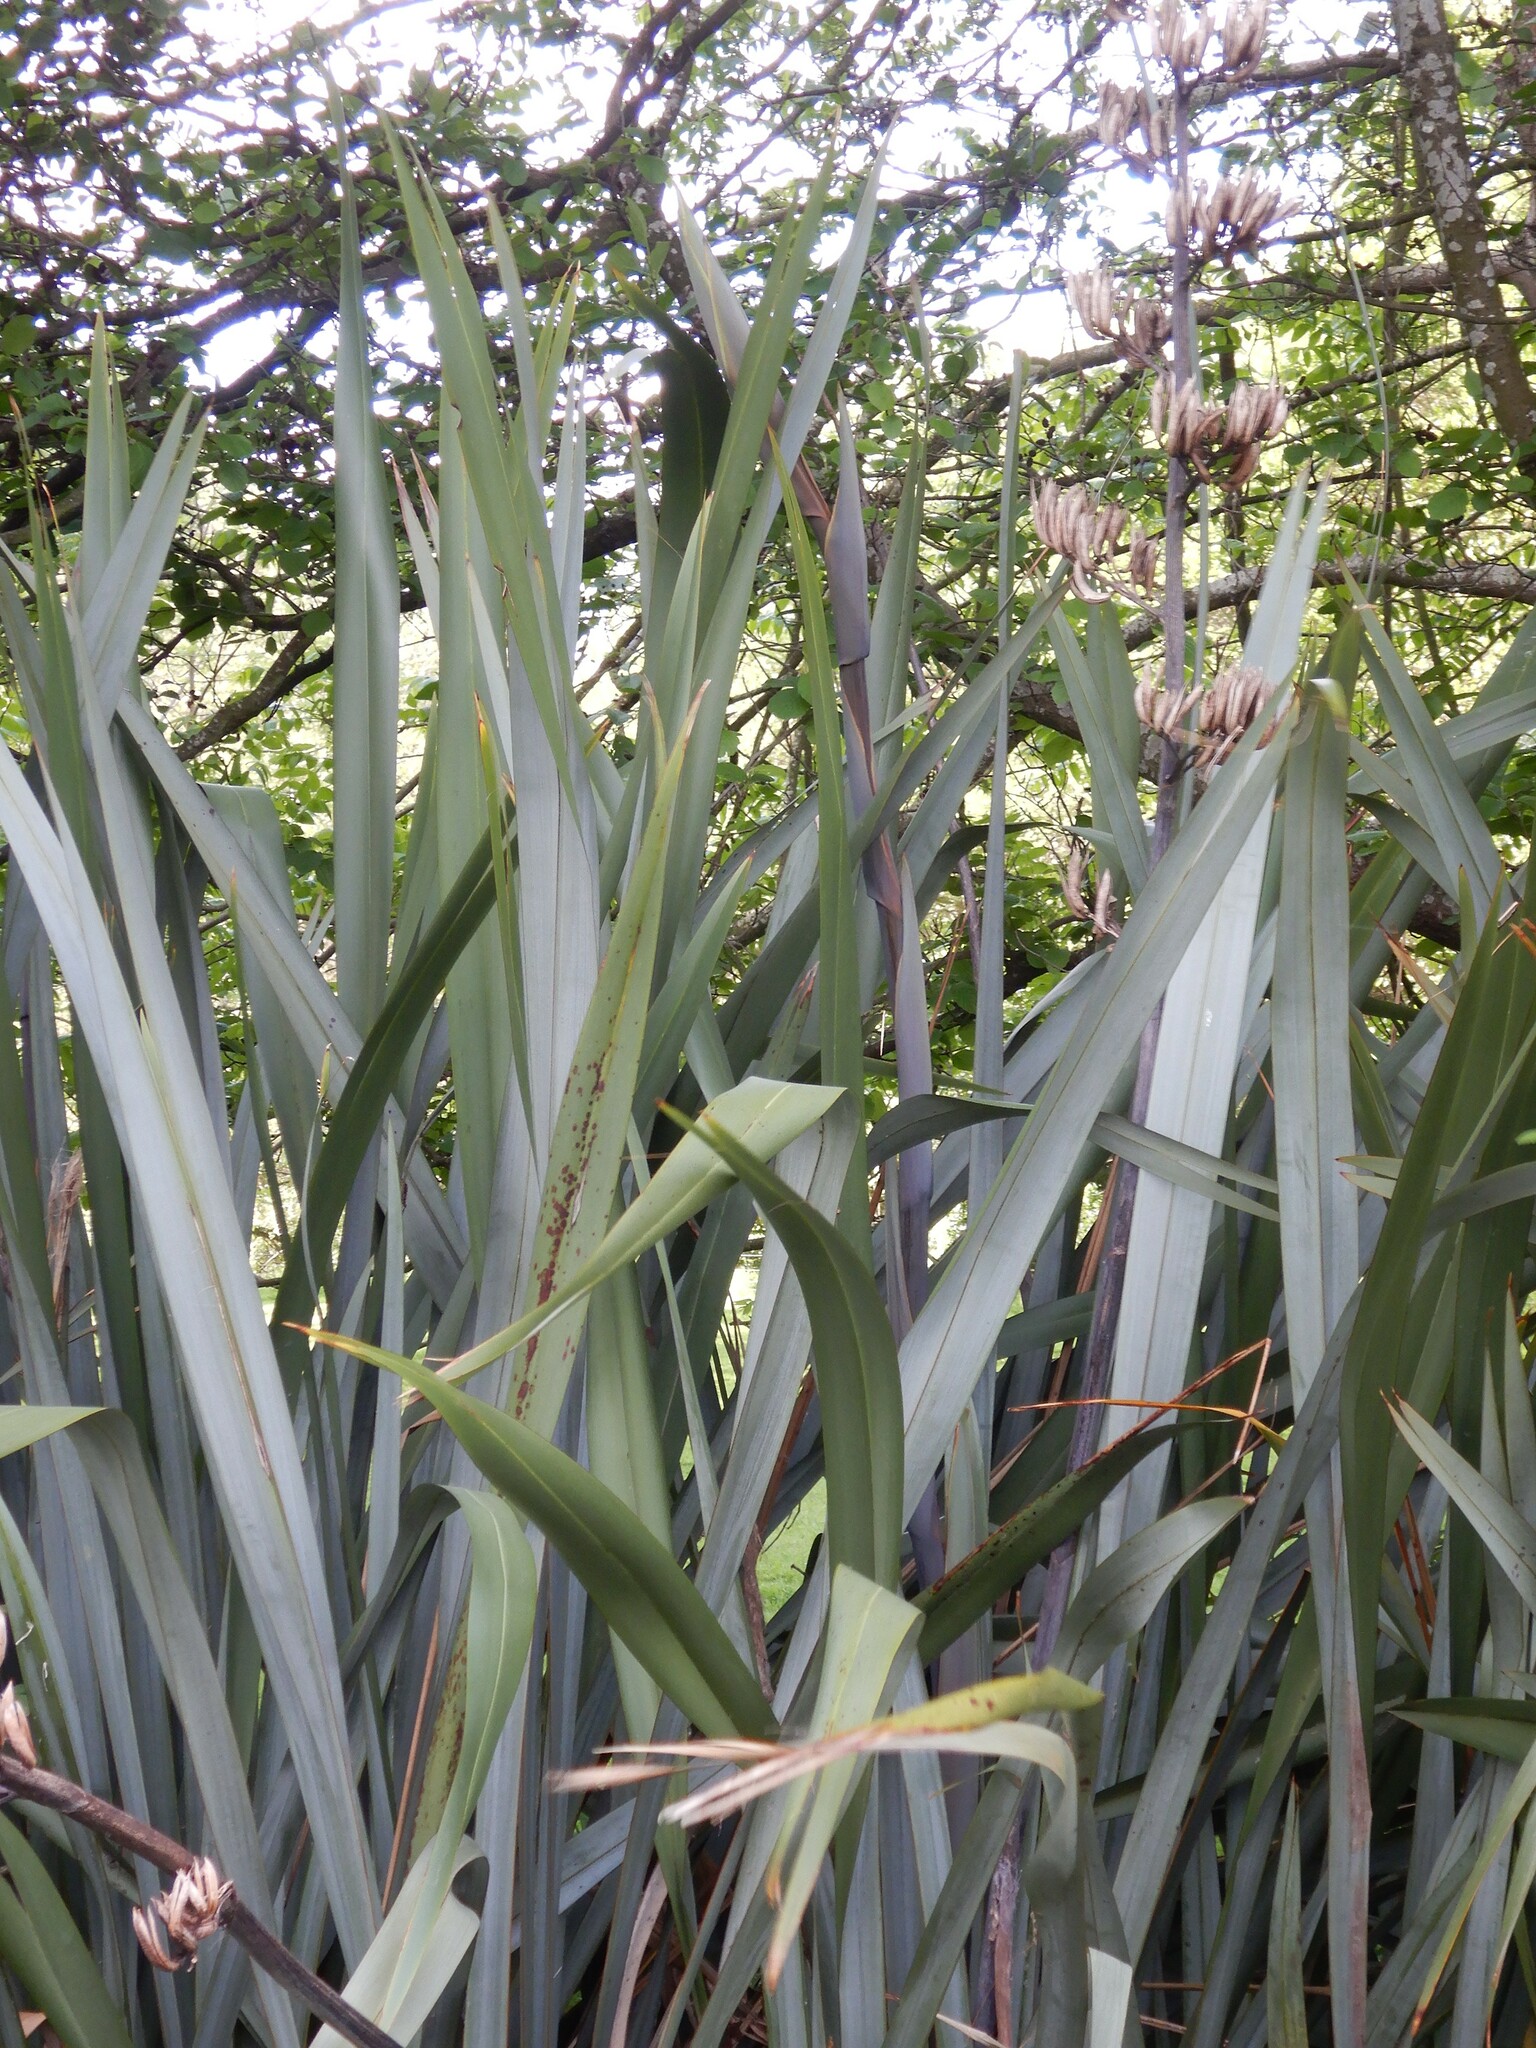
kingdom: Plantae
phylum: Tracheophyta
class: Liliopsida
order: Asparagales
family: Asphodelaceae
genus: Phormium
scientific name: Phormium tenax
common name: New zealand flax
